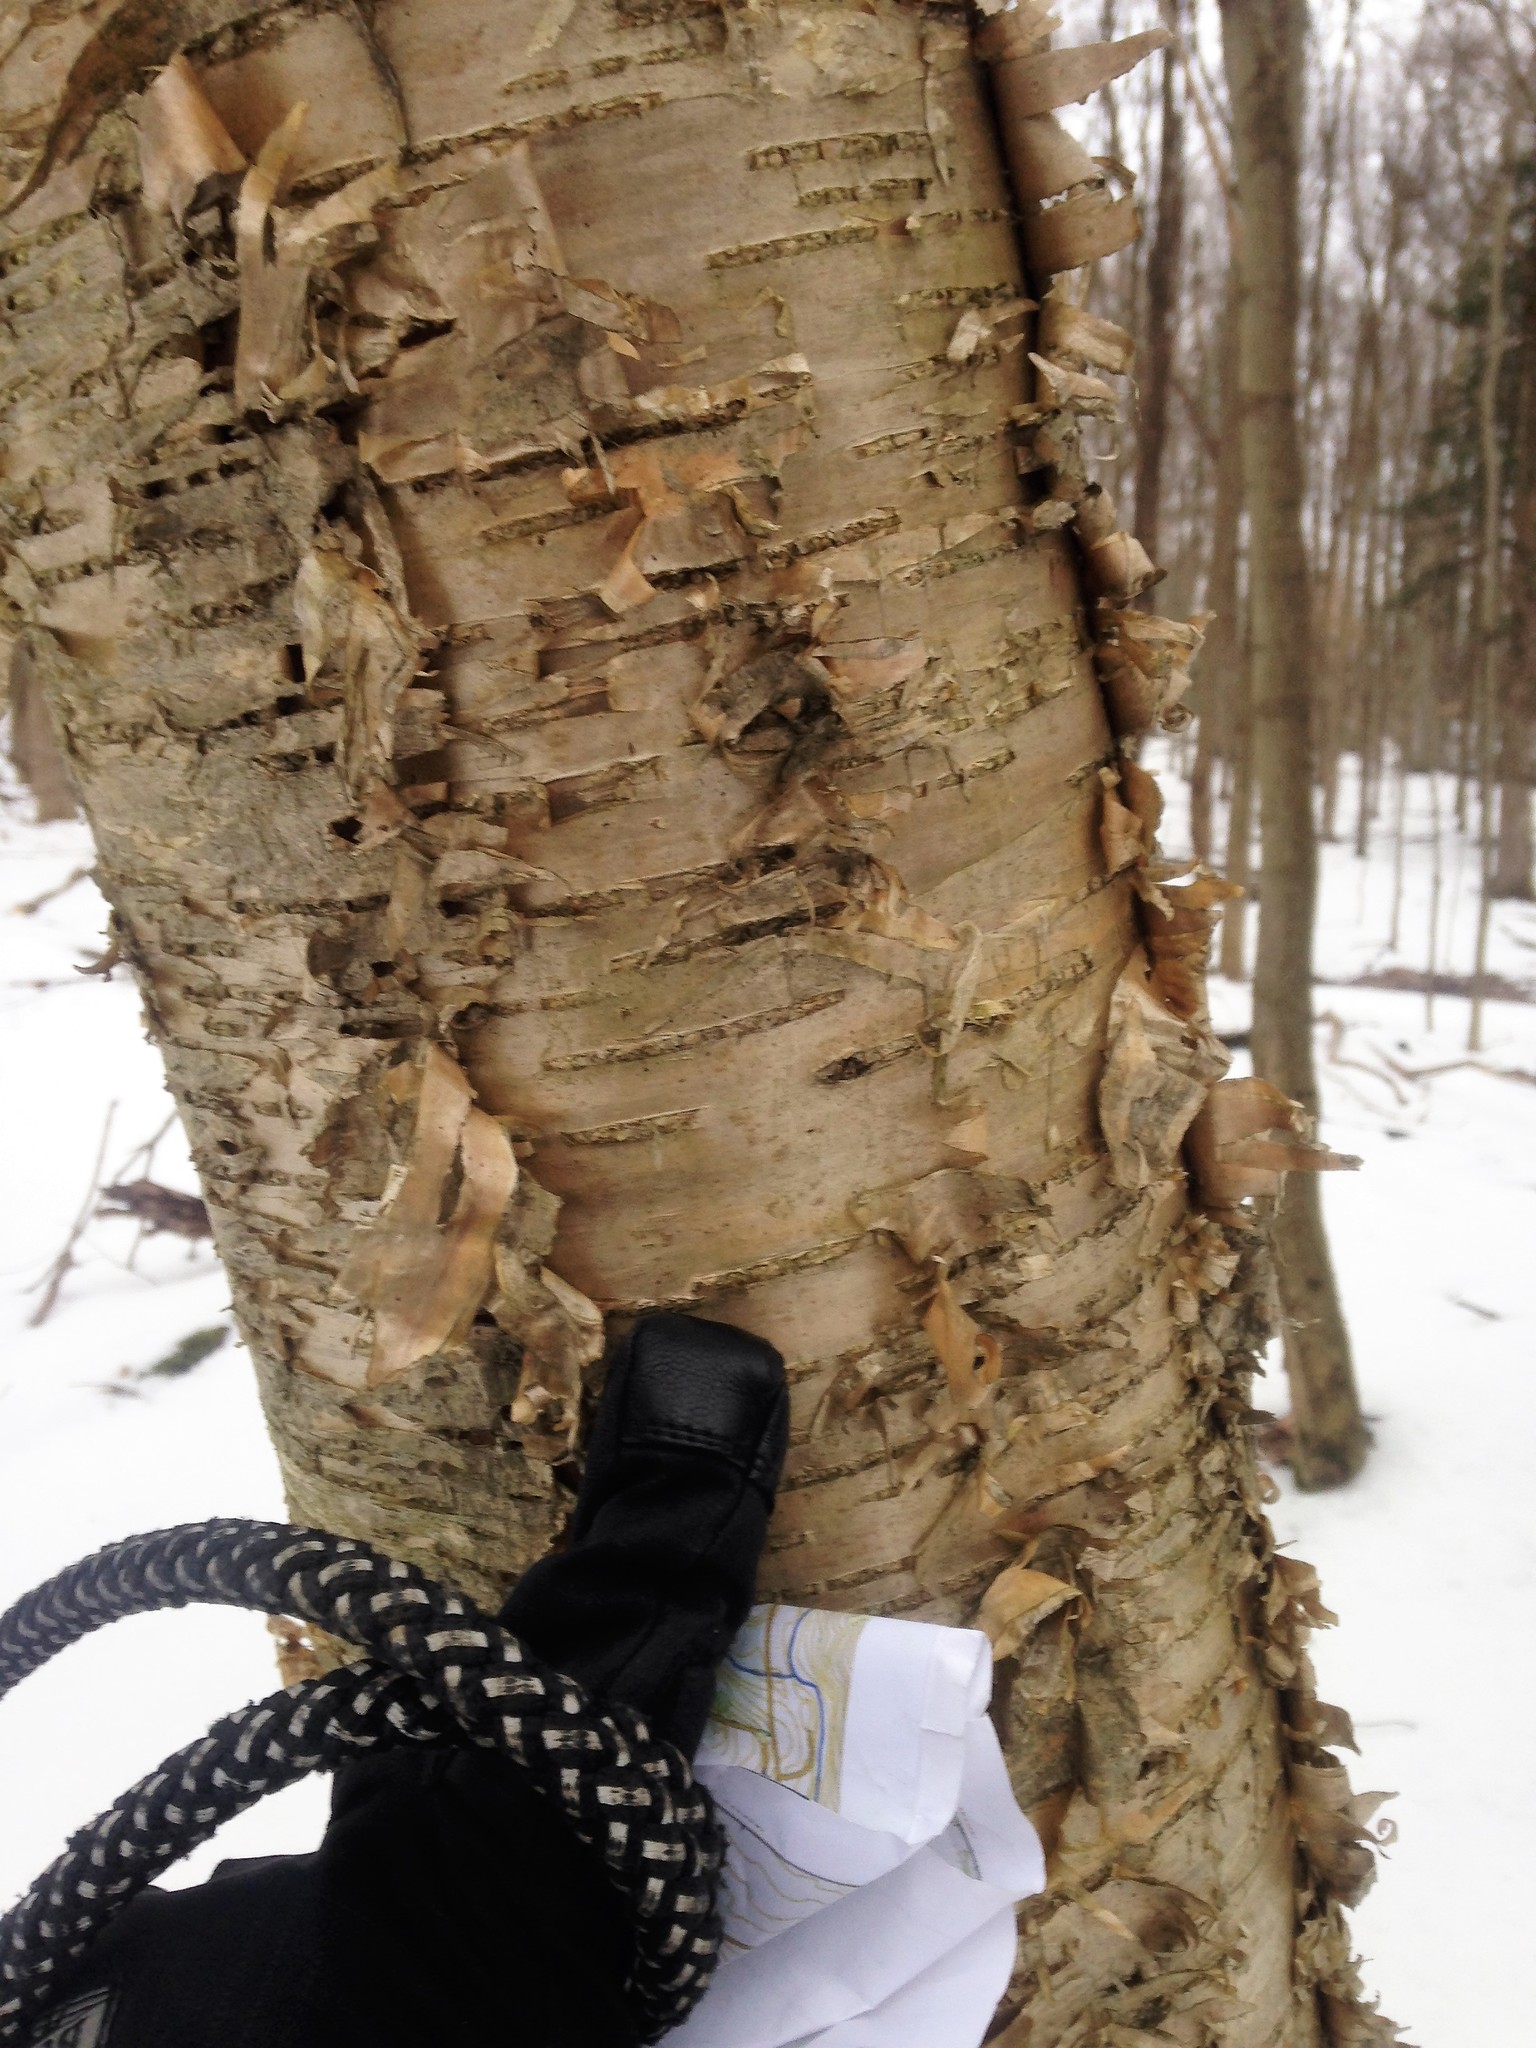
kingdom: Plantae
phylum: Tracheophyta
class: Magnoliopsida
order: Fagales
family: Betulaceae
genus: Betula
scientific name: Betula alleghaniensis
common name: Yellow birch
